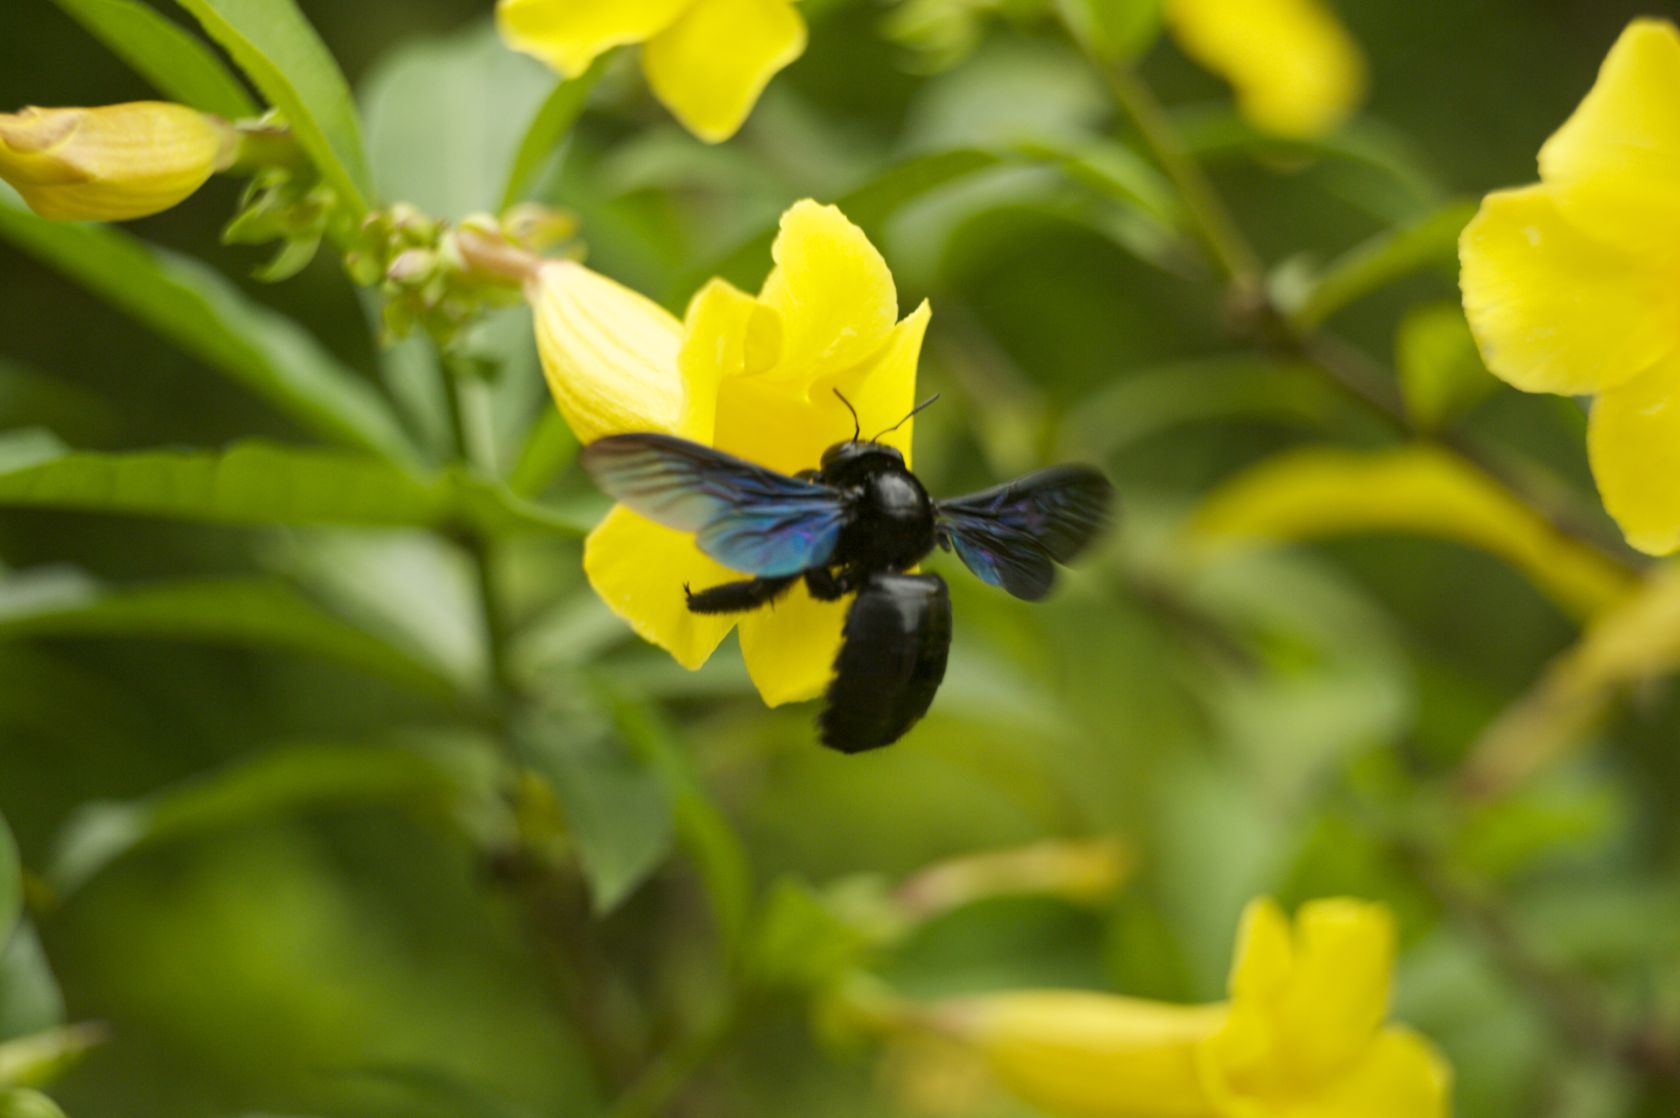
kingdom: Animalia
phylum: Arthropoda
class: Insecta
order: Hymenoptera
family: Apidae
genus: Xylocopa
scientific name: Xylocopa nasalis
